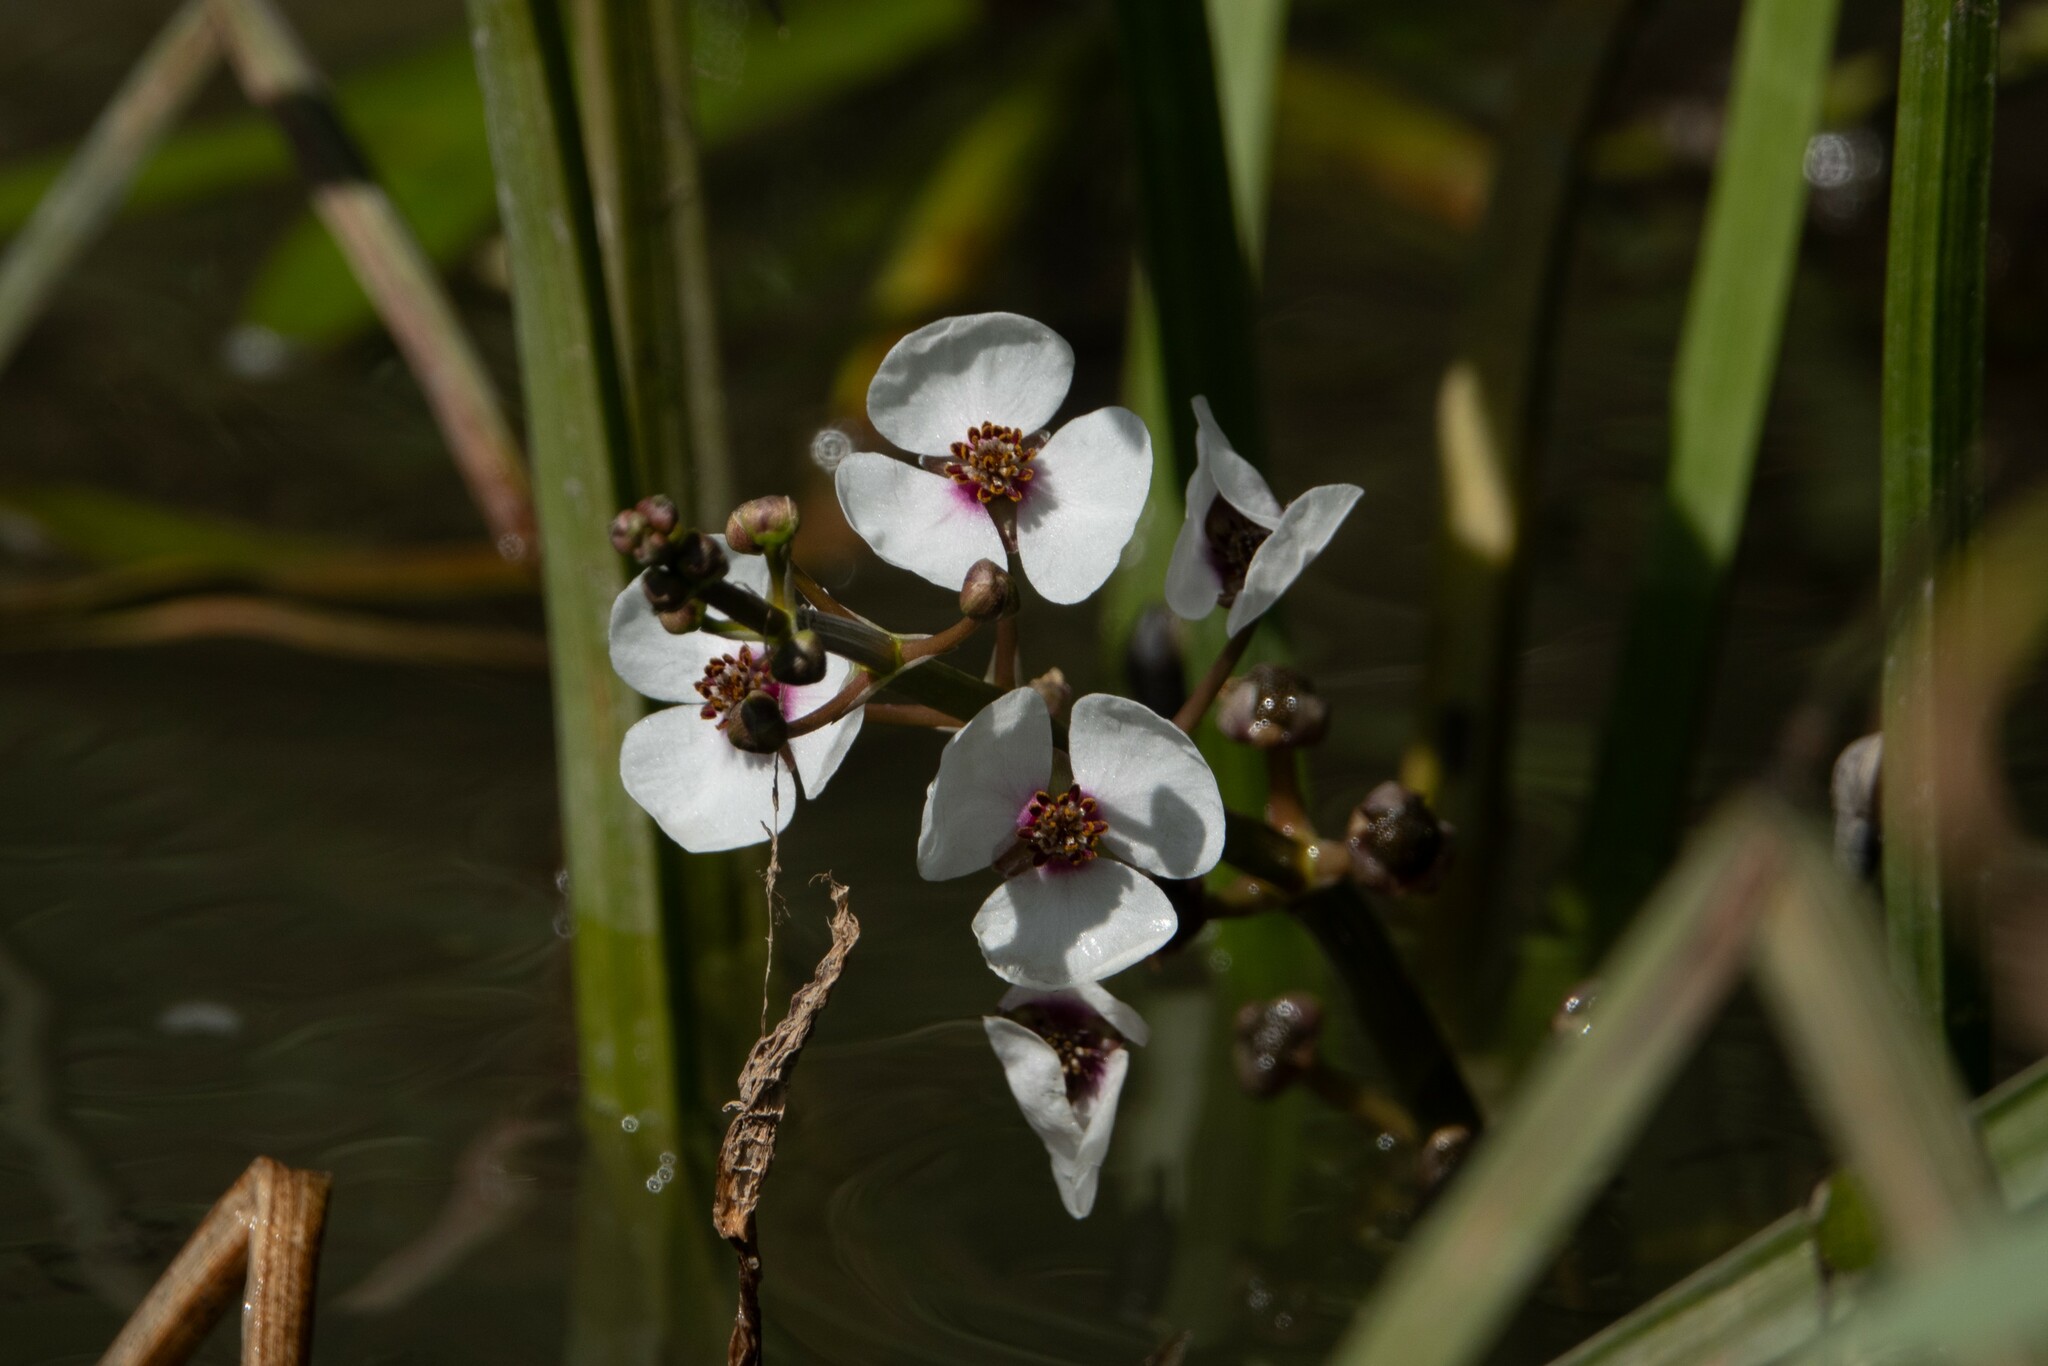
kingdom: Plantae
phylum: Tracheophyta
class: Liliopsida
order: Alismatales
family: Alismataceae
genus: Sagittaria
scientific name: Sagittaria sagittifolia
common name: Arrowhead
